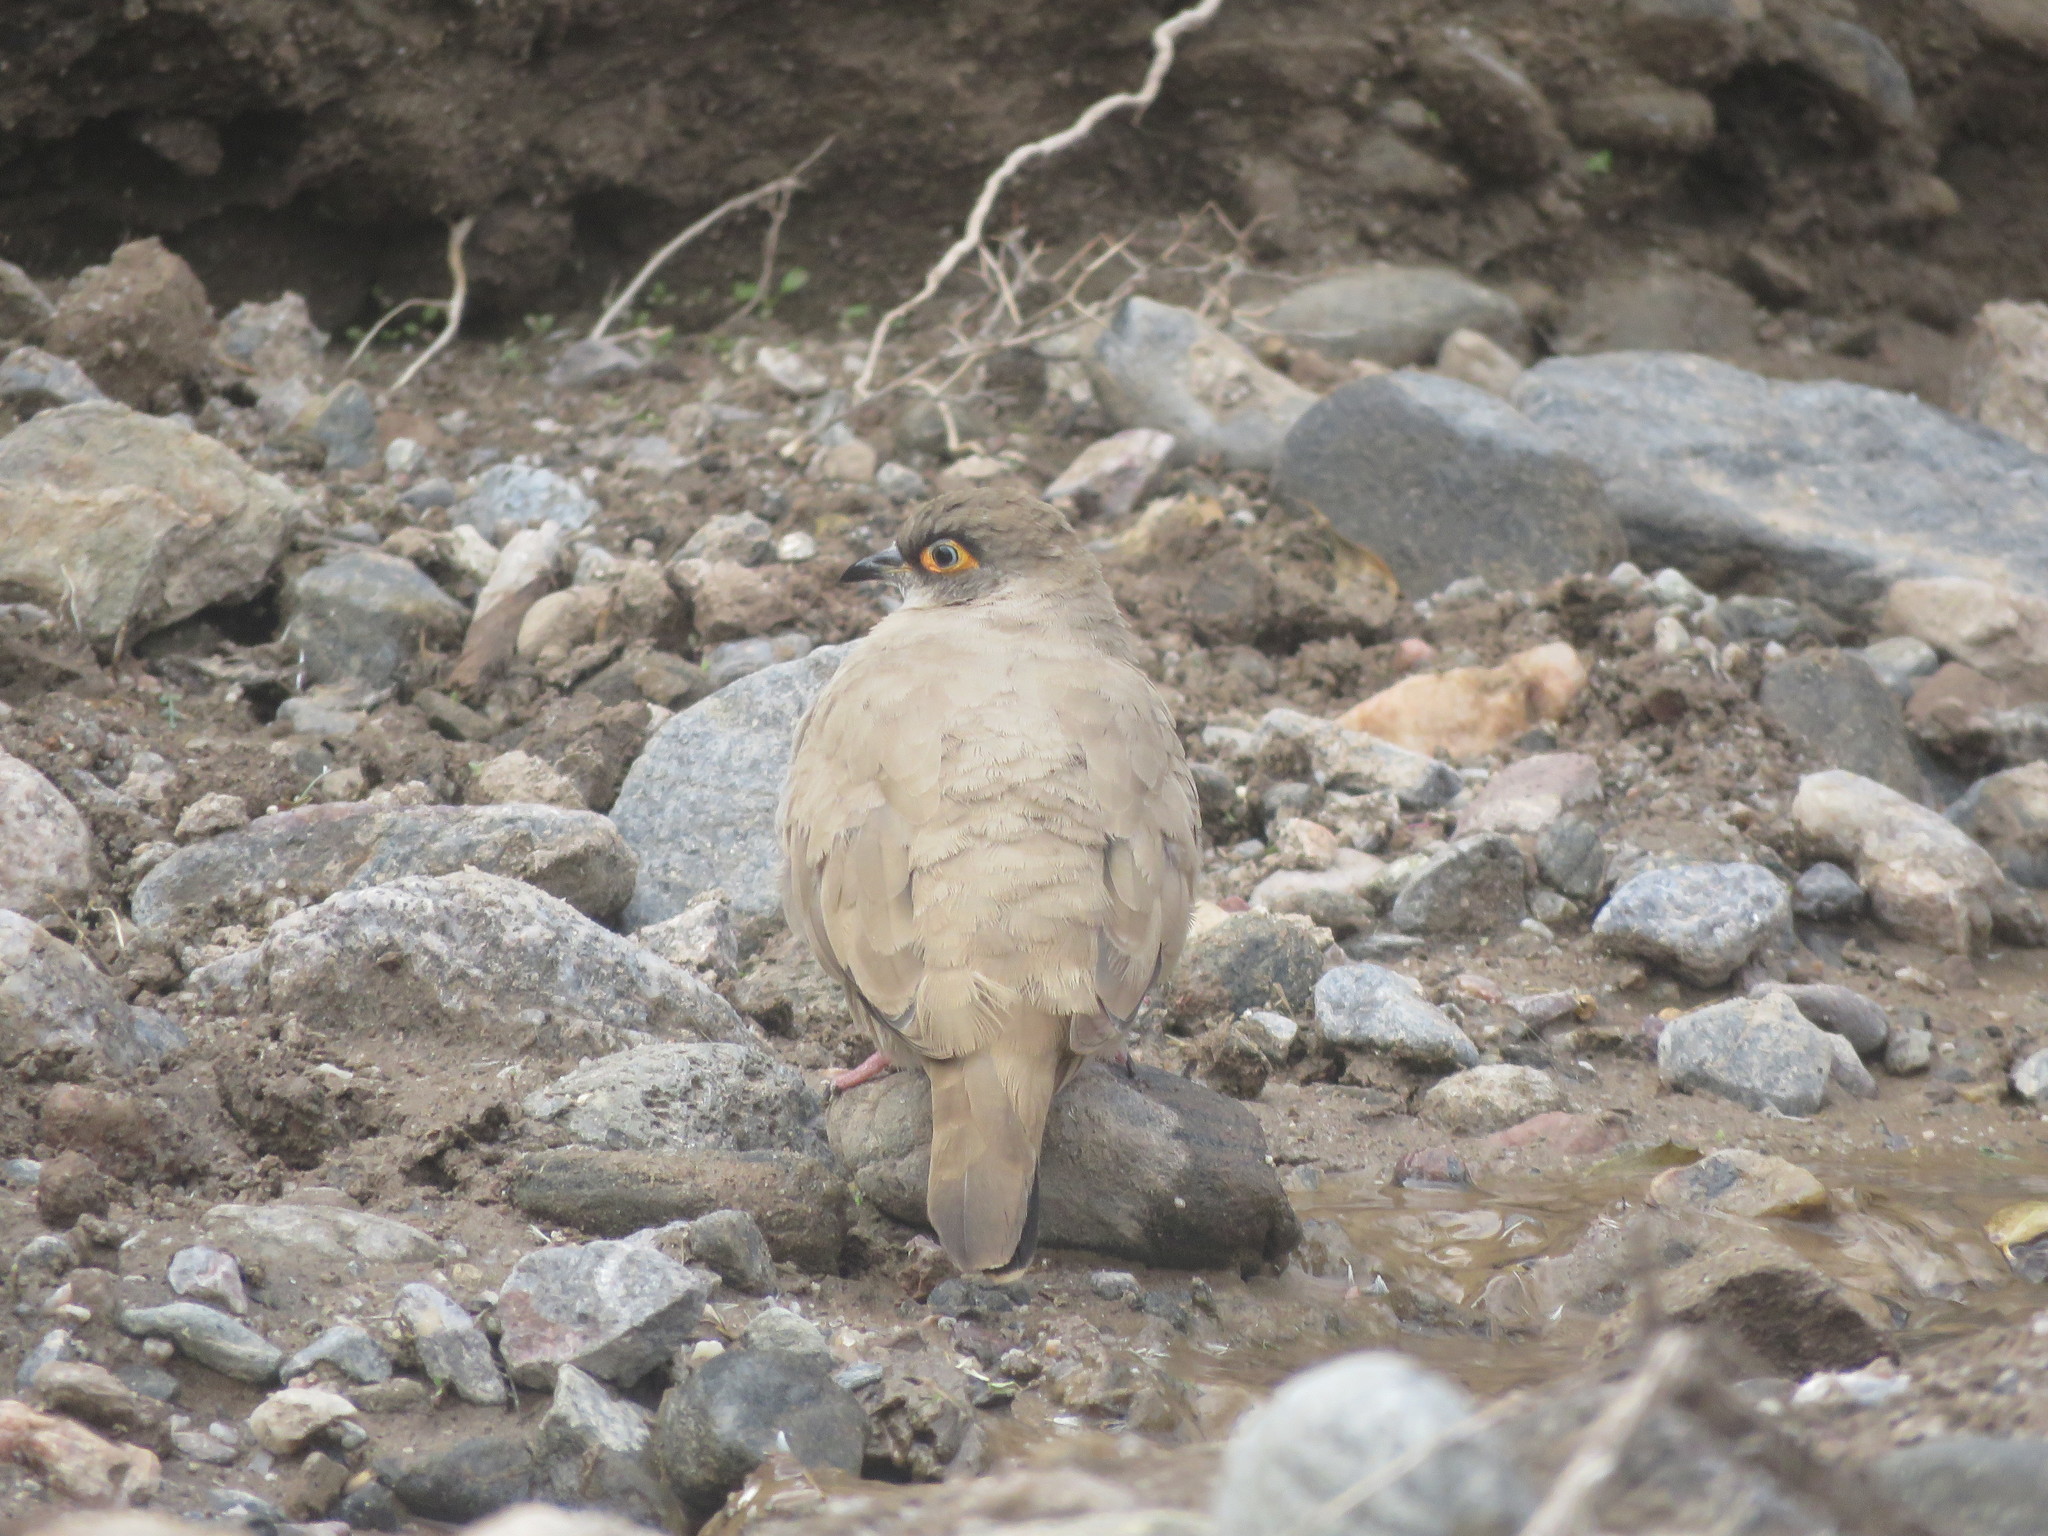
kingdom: Animalia
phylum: Chordata
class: Aves
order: Columbiformes
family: Columbidae
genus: Metriopelia
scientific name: Metriopelia morenoi
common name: Moreno's ground dove
